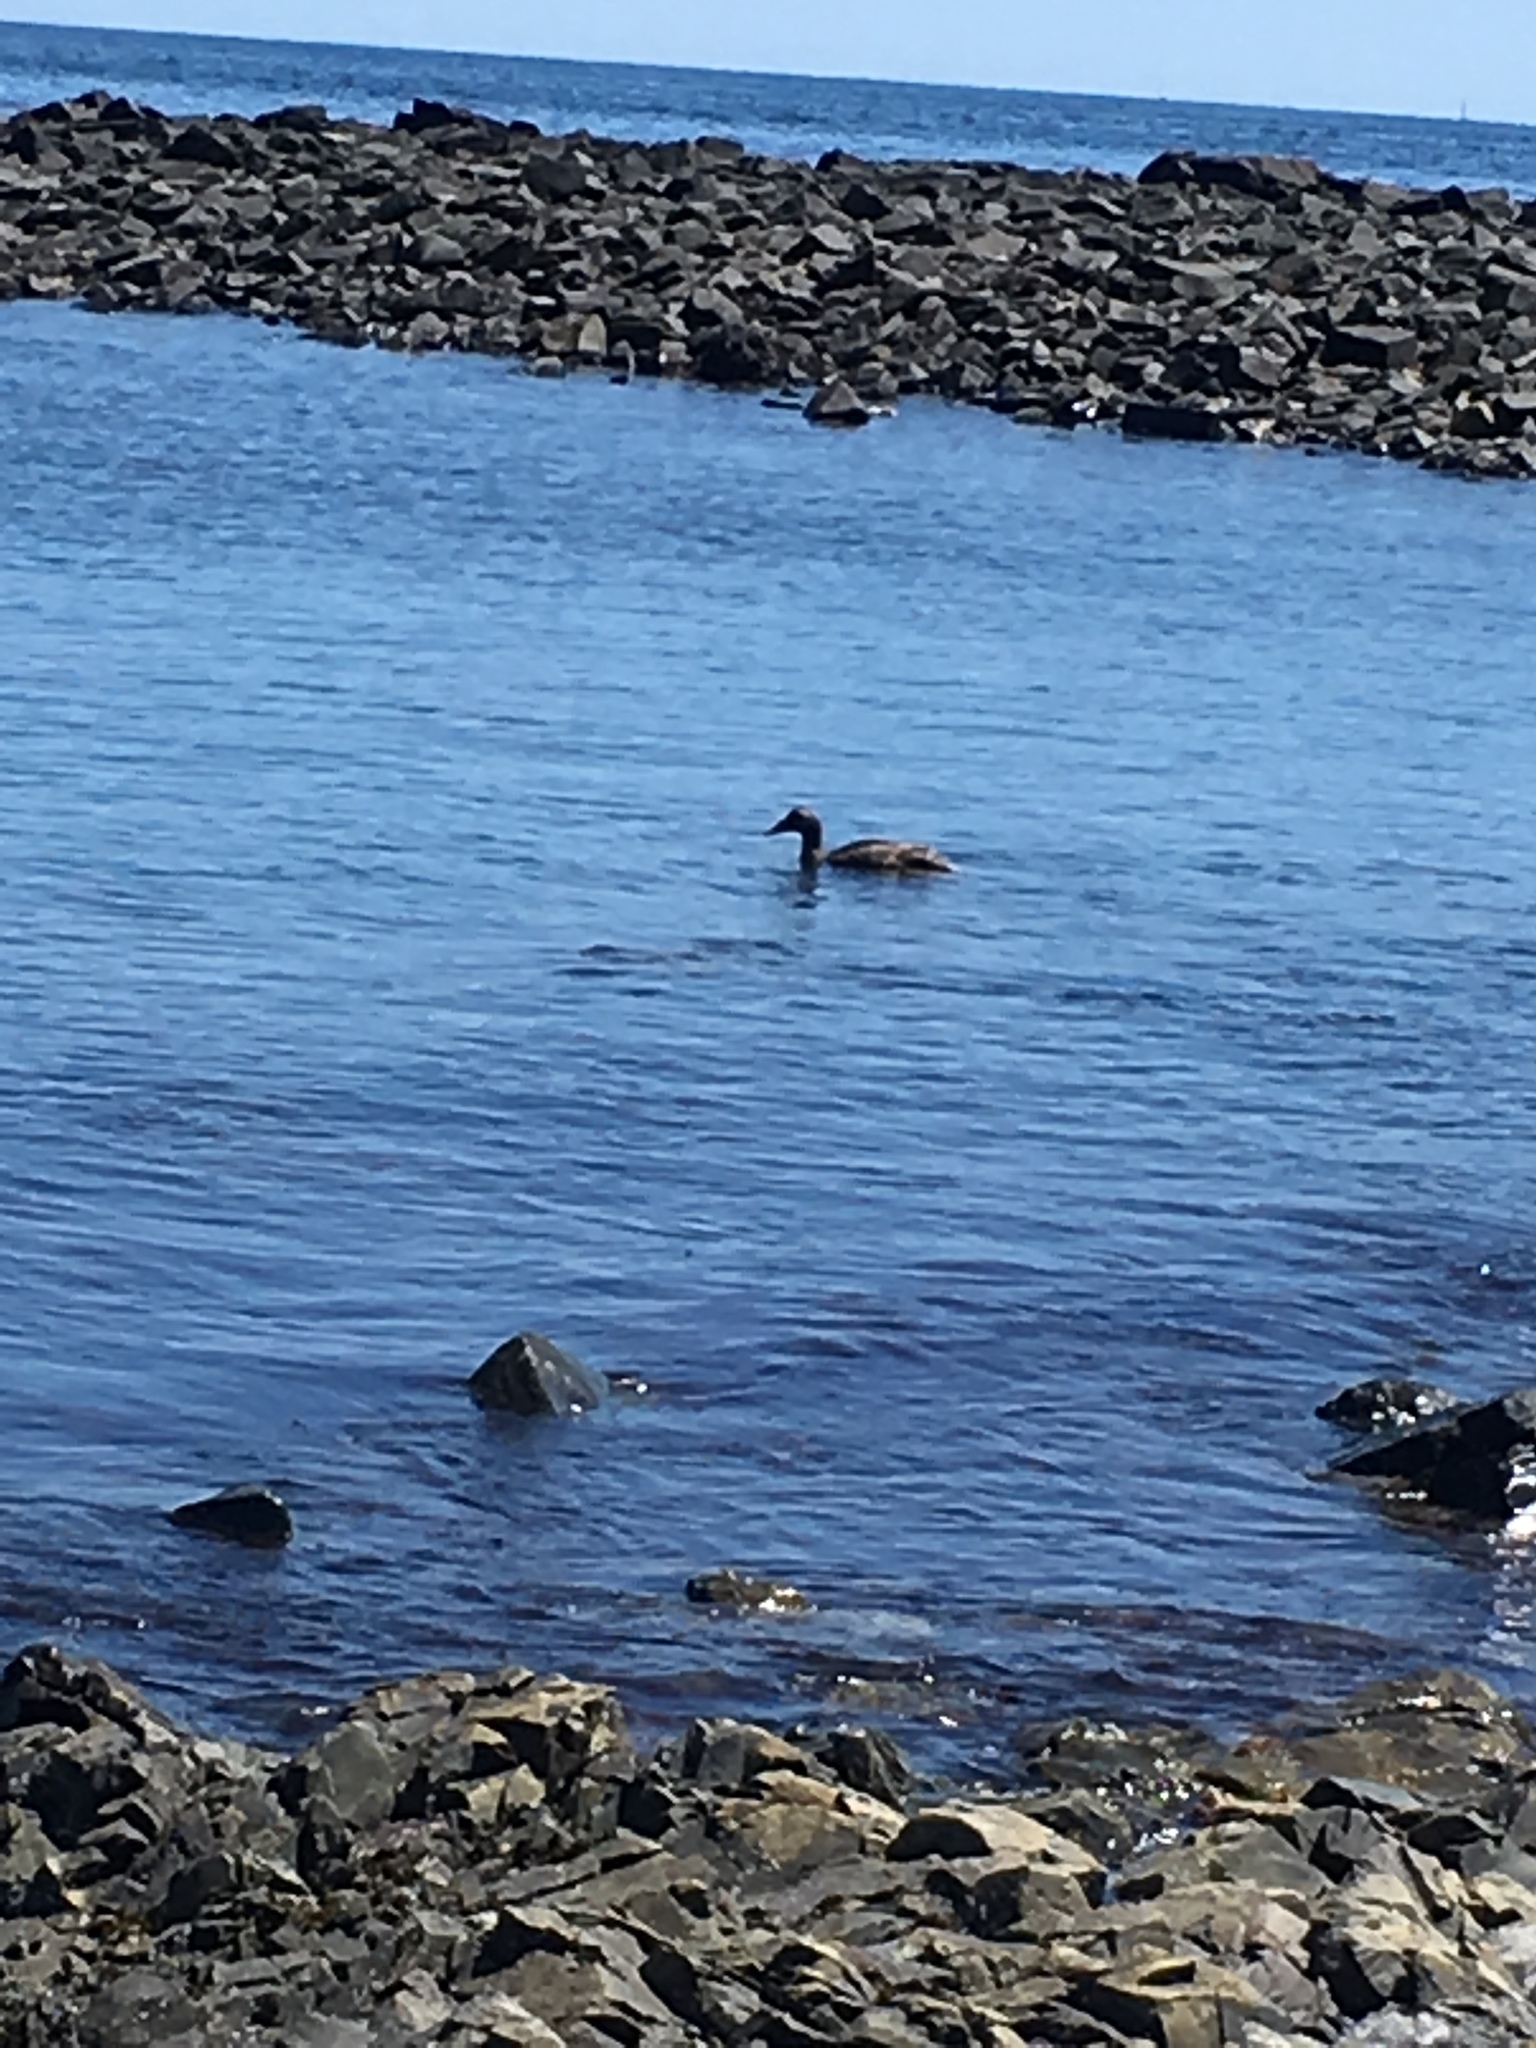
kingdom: Animalia
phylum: Chordata
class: Aves
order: Anseriformes
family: Anatidae
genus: Somateria
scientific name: Somateria mollissima
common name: Common eider
